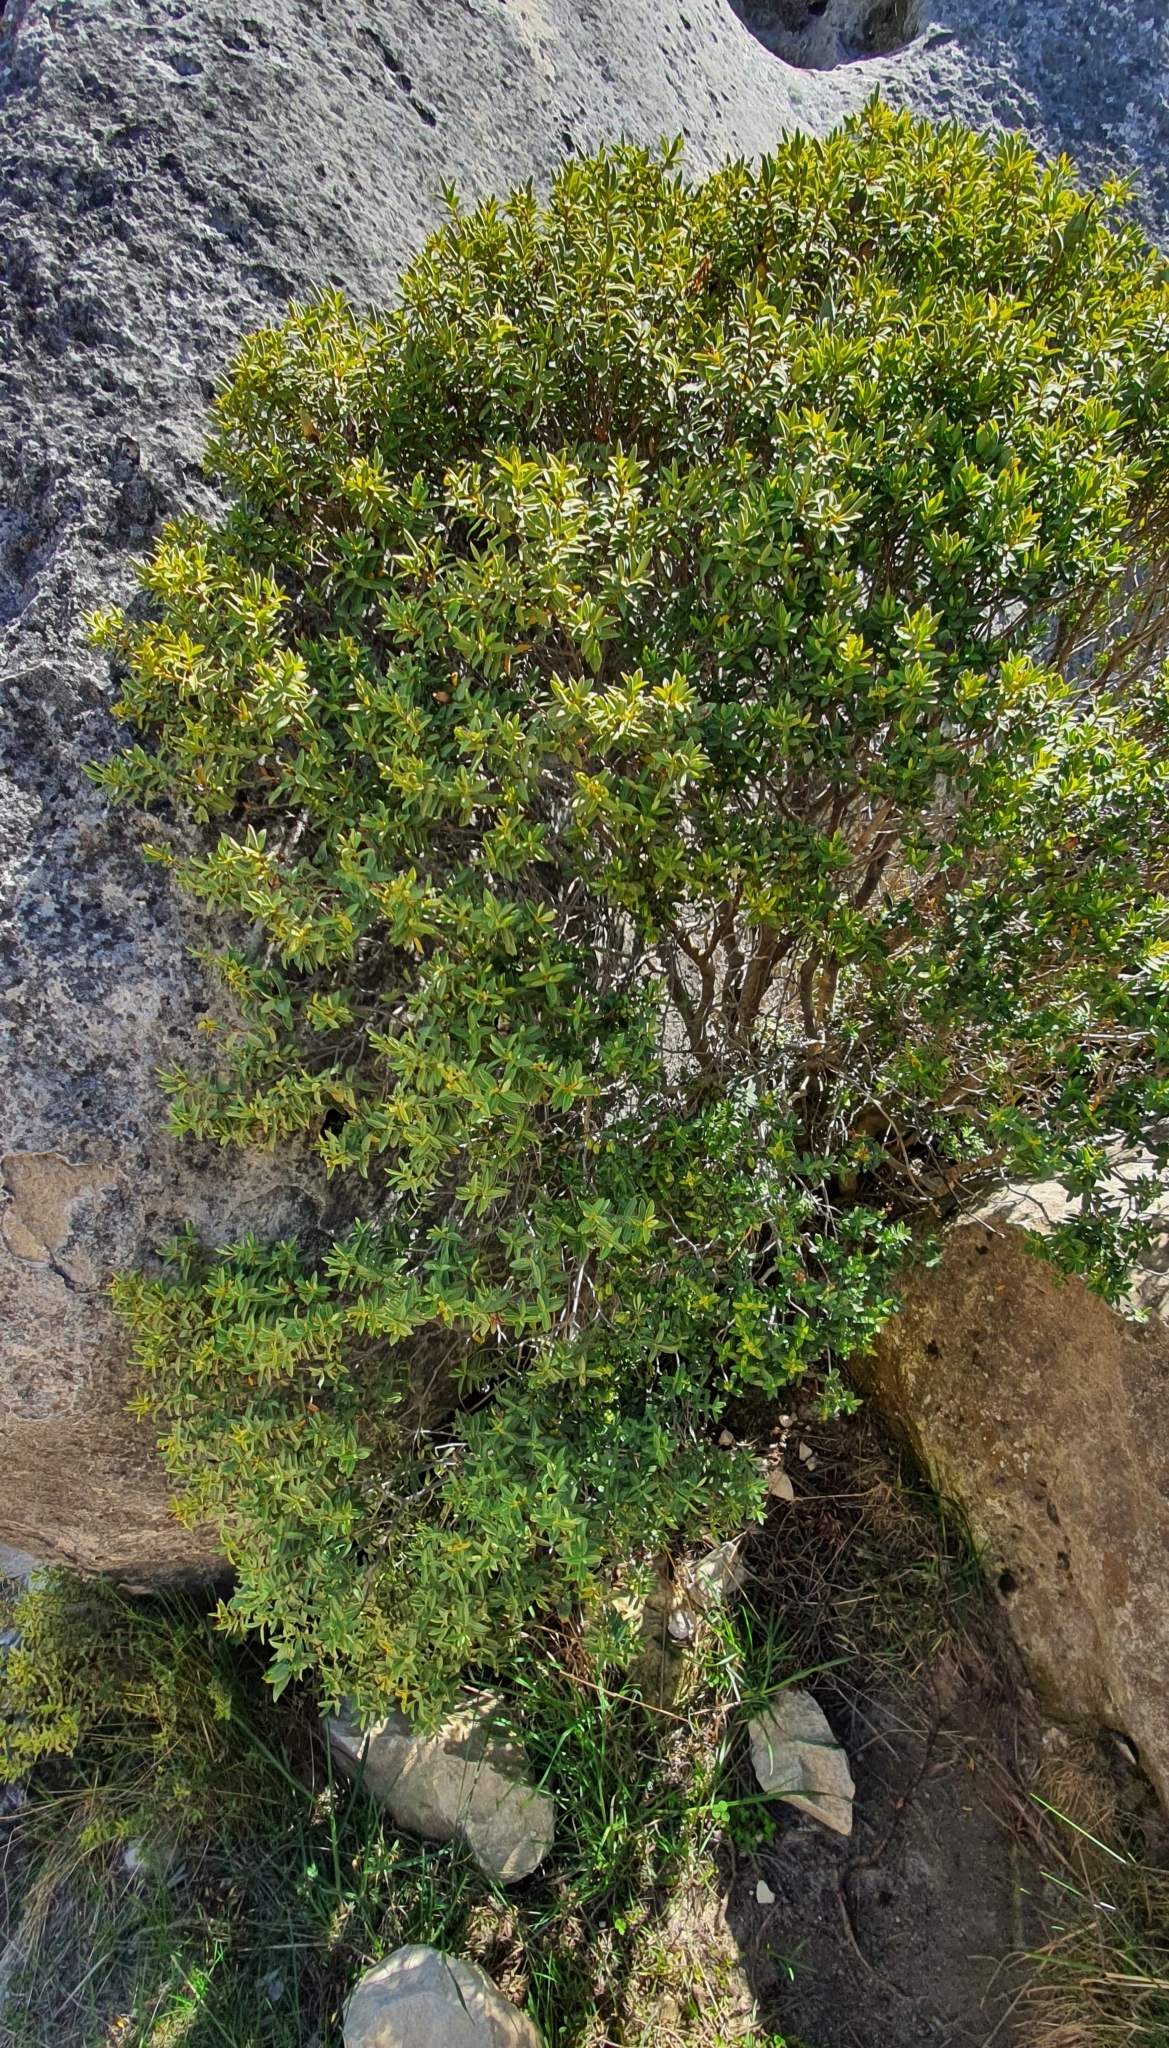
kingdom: Plantae
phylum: Tracheophyta
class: Magnoliopsida
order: Lamiales
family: Plantaginaceae
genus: Veronica
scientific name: Veronica glaucophylla
